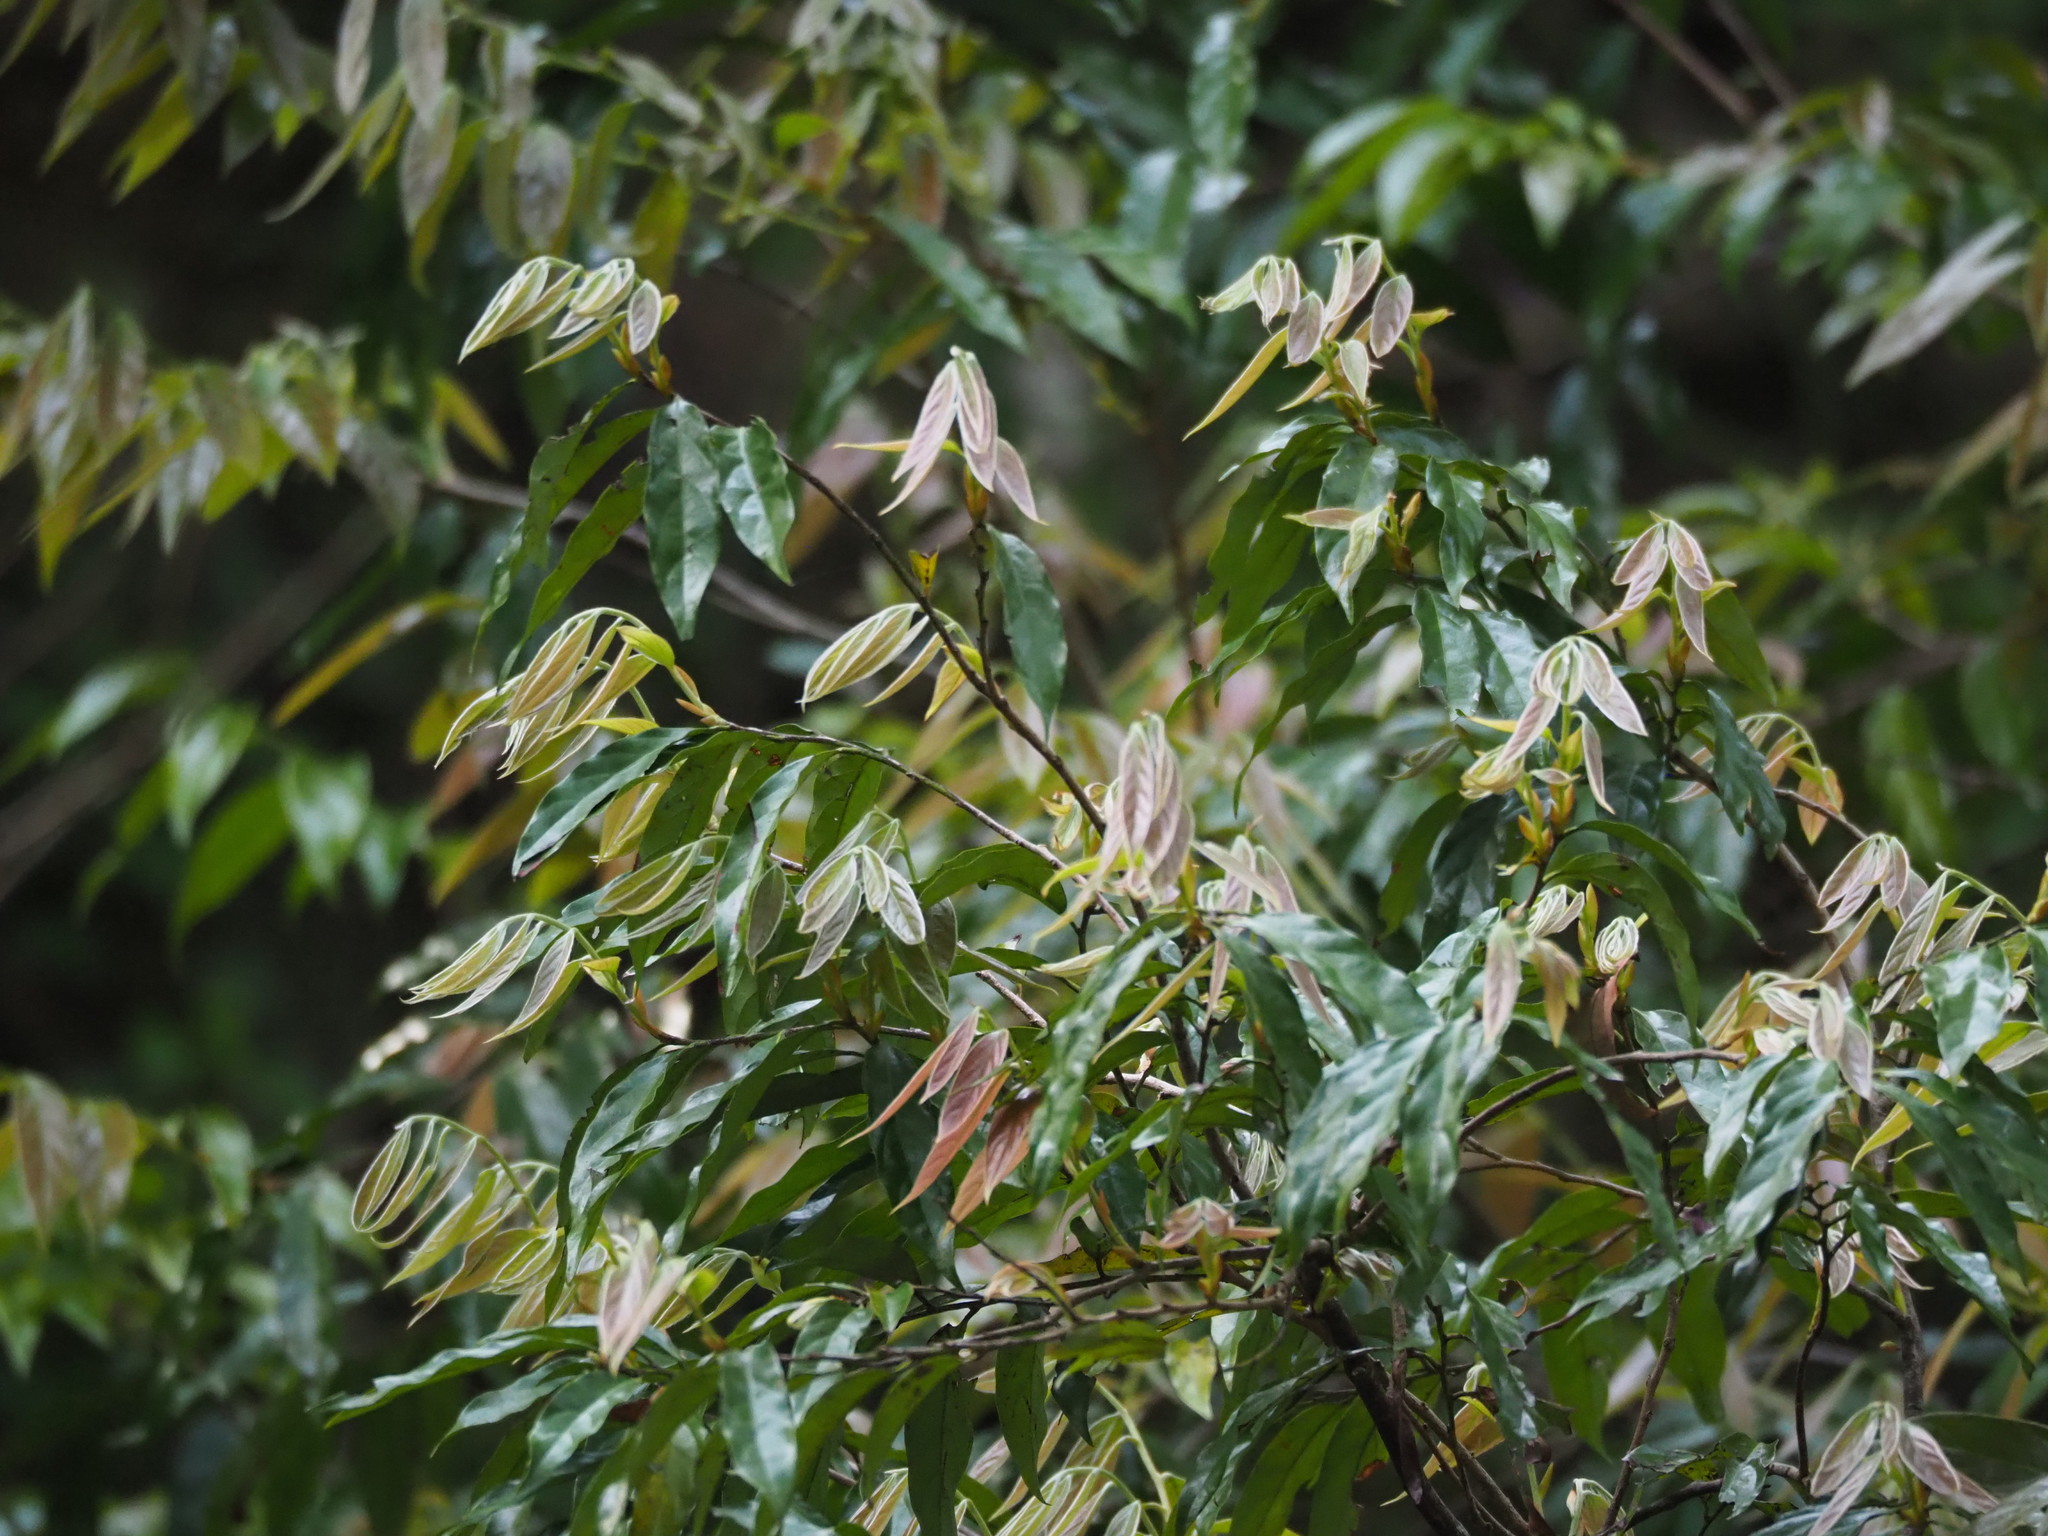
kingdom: Plantae
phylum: Tracheophyta
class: Magnoliopsida
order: Ericales
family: Ebenaceae
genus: Diospyros
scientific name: Diospyros eriantha
